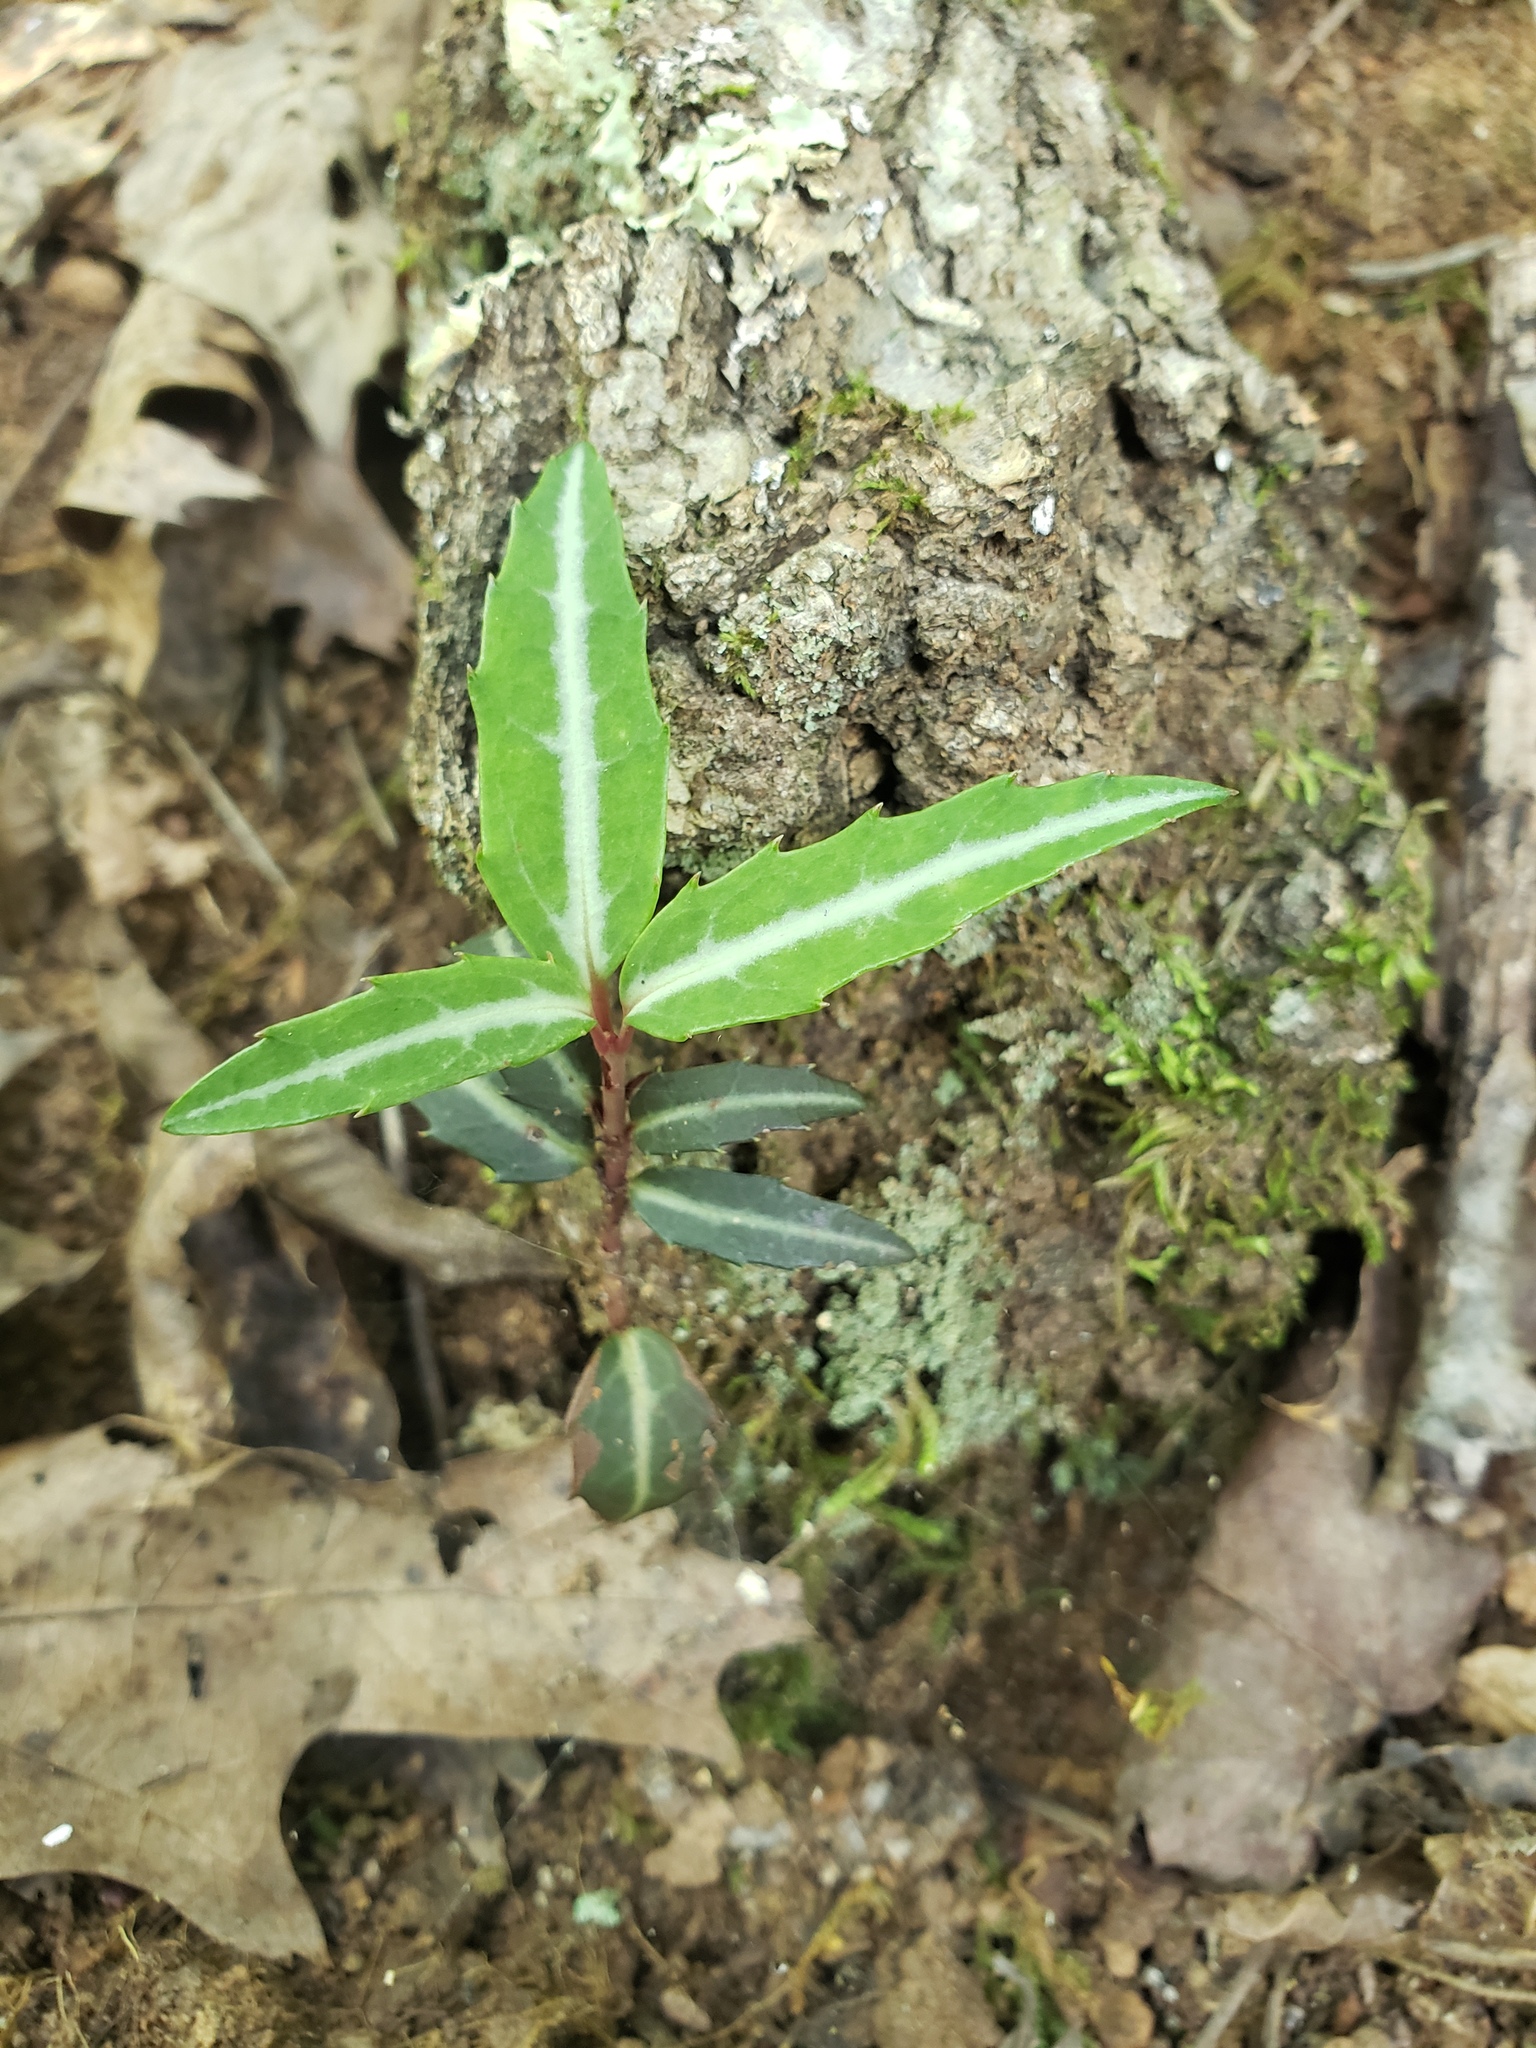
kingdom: Plantae
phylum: Tracheophyta
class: Magnoliopsida
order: Ericales
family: Ericaceae
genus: Chimaphila
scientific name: Chimaphila maculata
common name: Spotted pipsissewa
